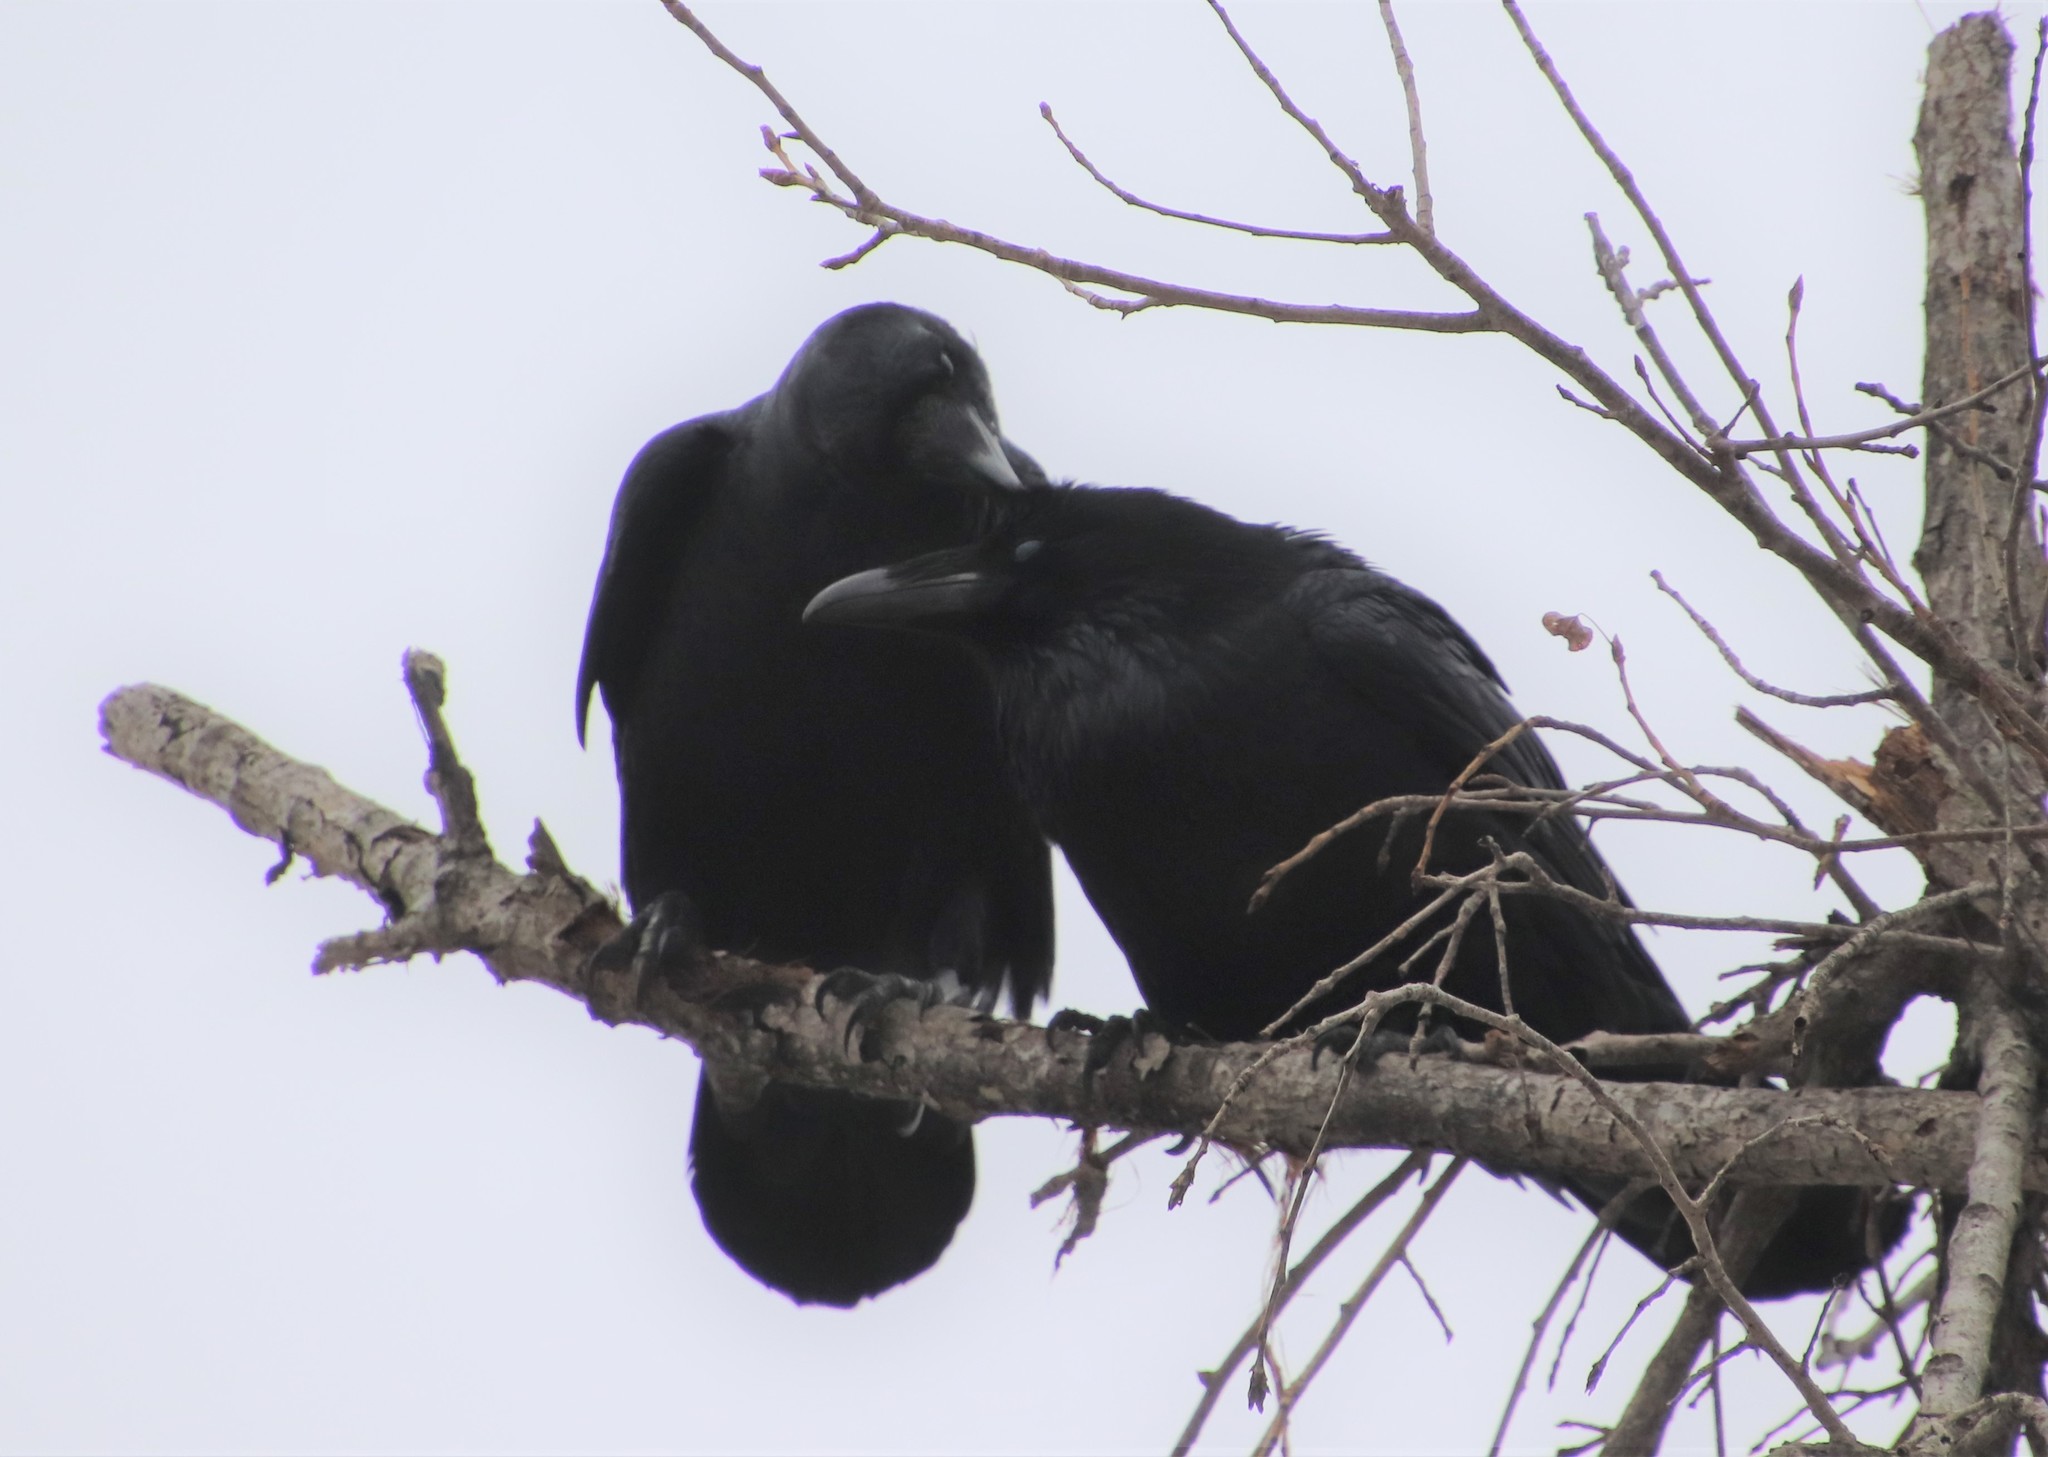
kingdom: Animalia
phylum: Chordata
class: Aves
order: Passeriformes
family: Corvidae
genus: Corvus
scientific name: Corvus corax
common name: Common raven
